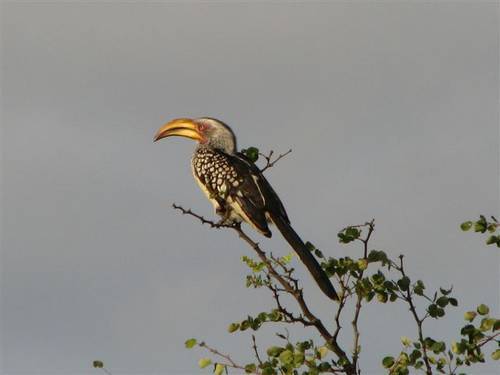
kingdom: Animalia
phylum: Chordata
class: Aves
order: Bucerotiformes
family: Bucerotidae
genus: Tockus
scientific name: Tockus leucomelas
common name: Southern yellow-billed hornbill
